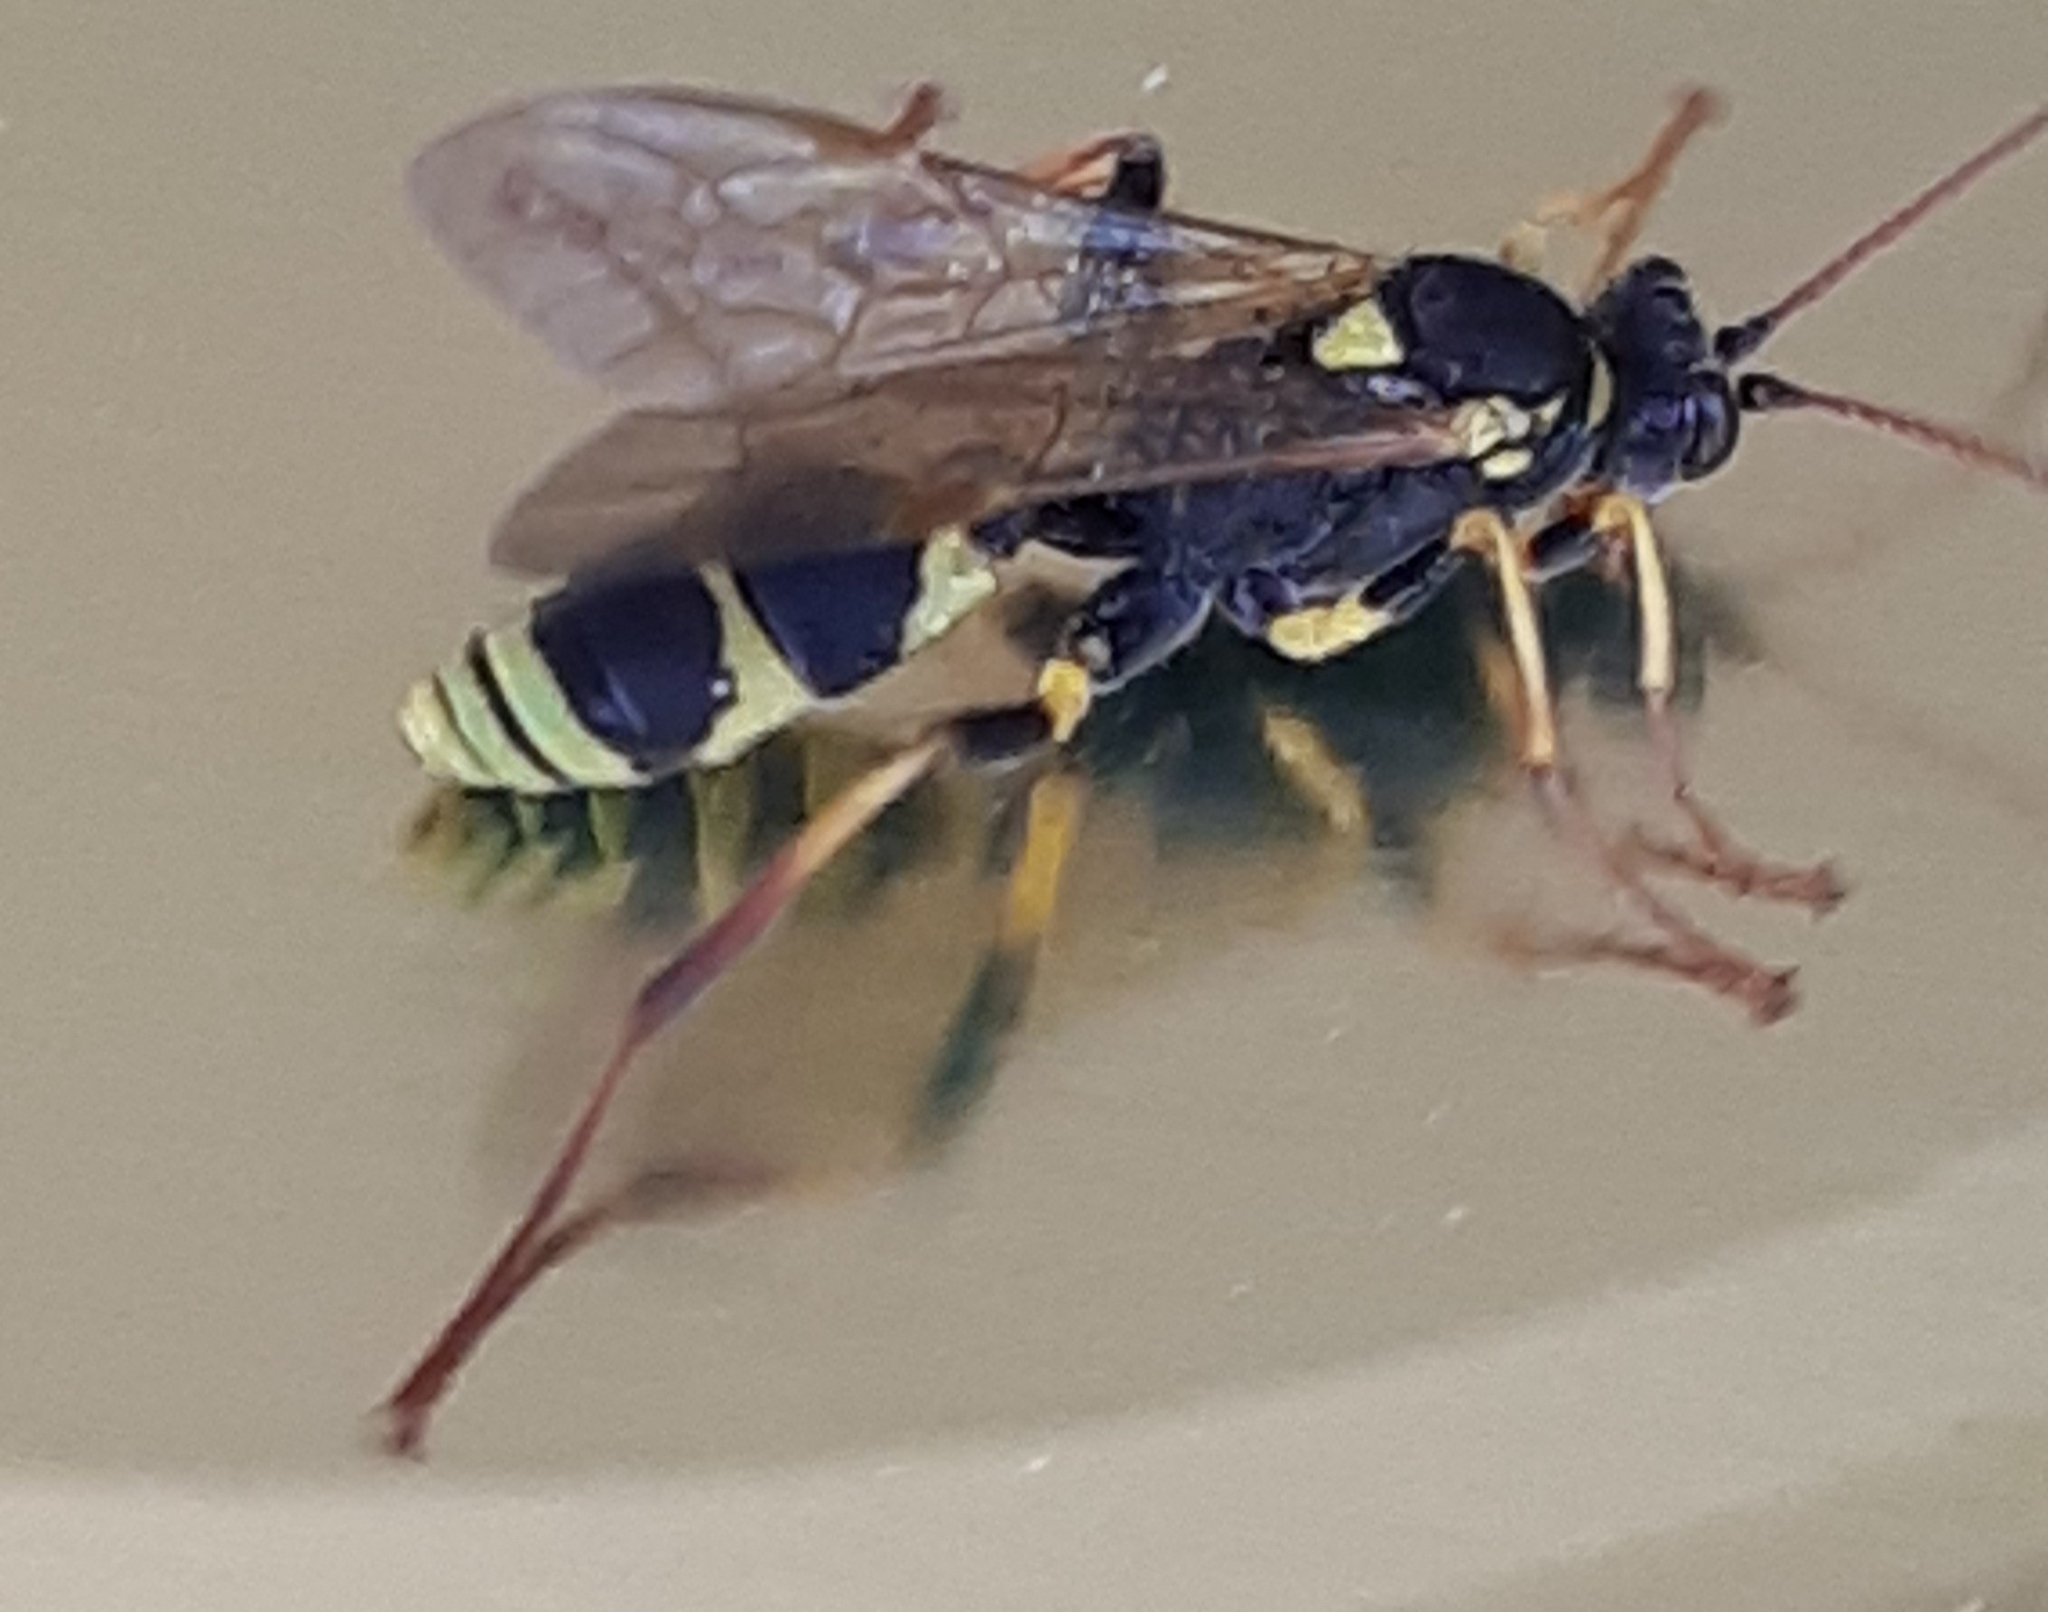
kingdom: Animalia
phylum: Arthropoda
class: Insecta
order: Hymenoptera
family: Ichneumonidae
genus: Amblyteles
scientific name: Amblyteles armatorius
